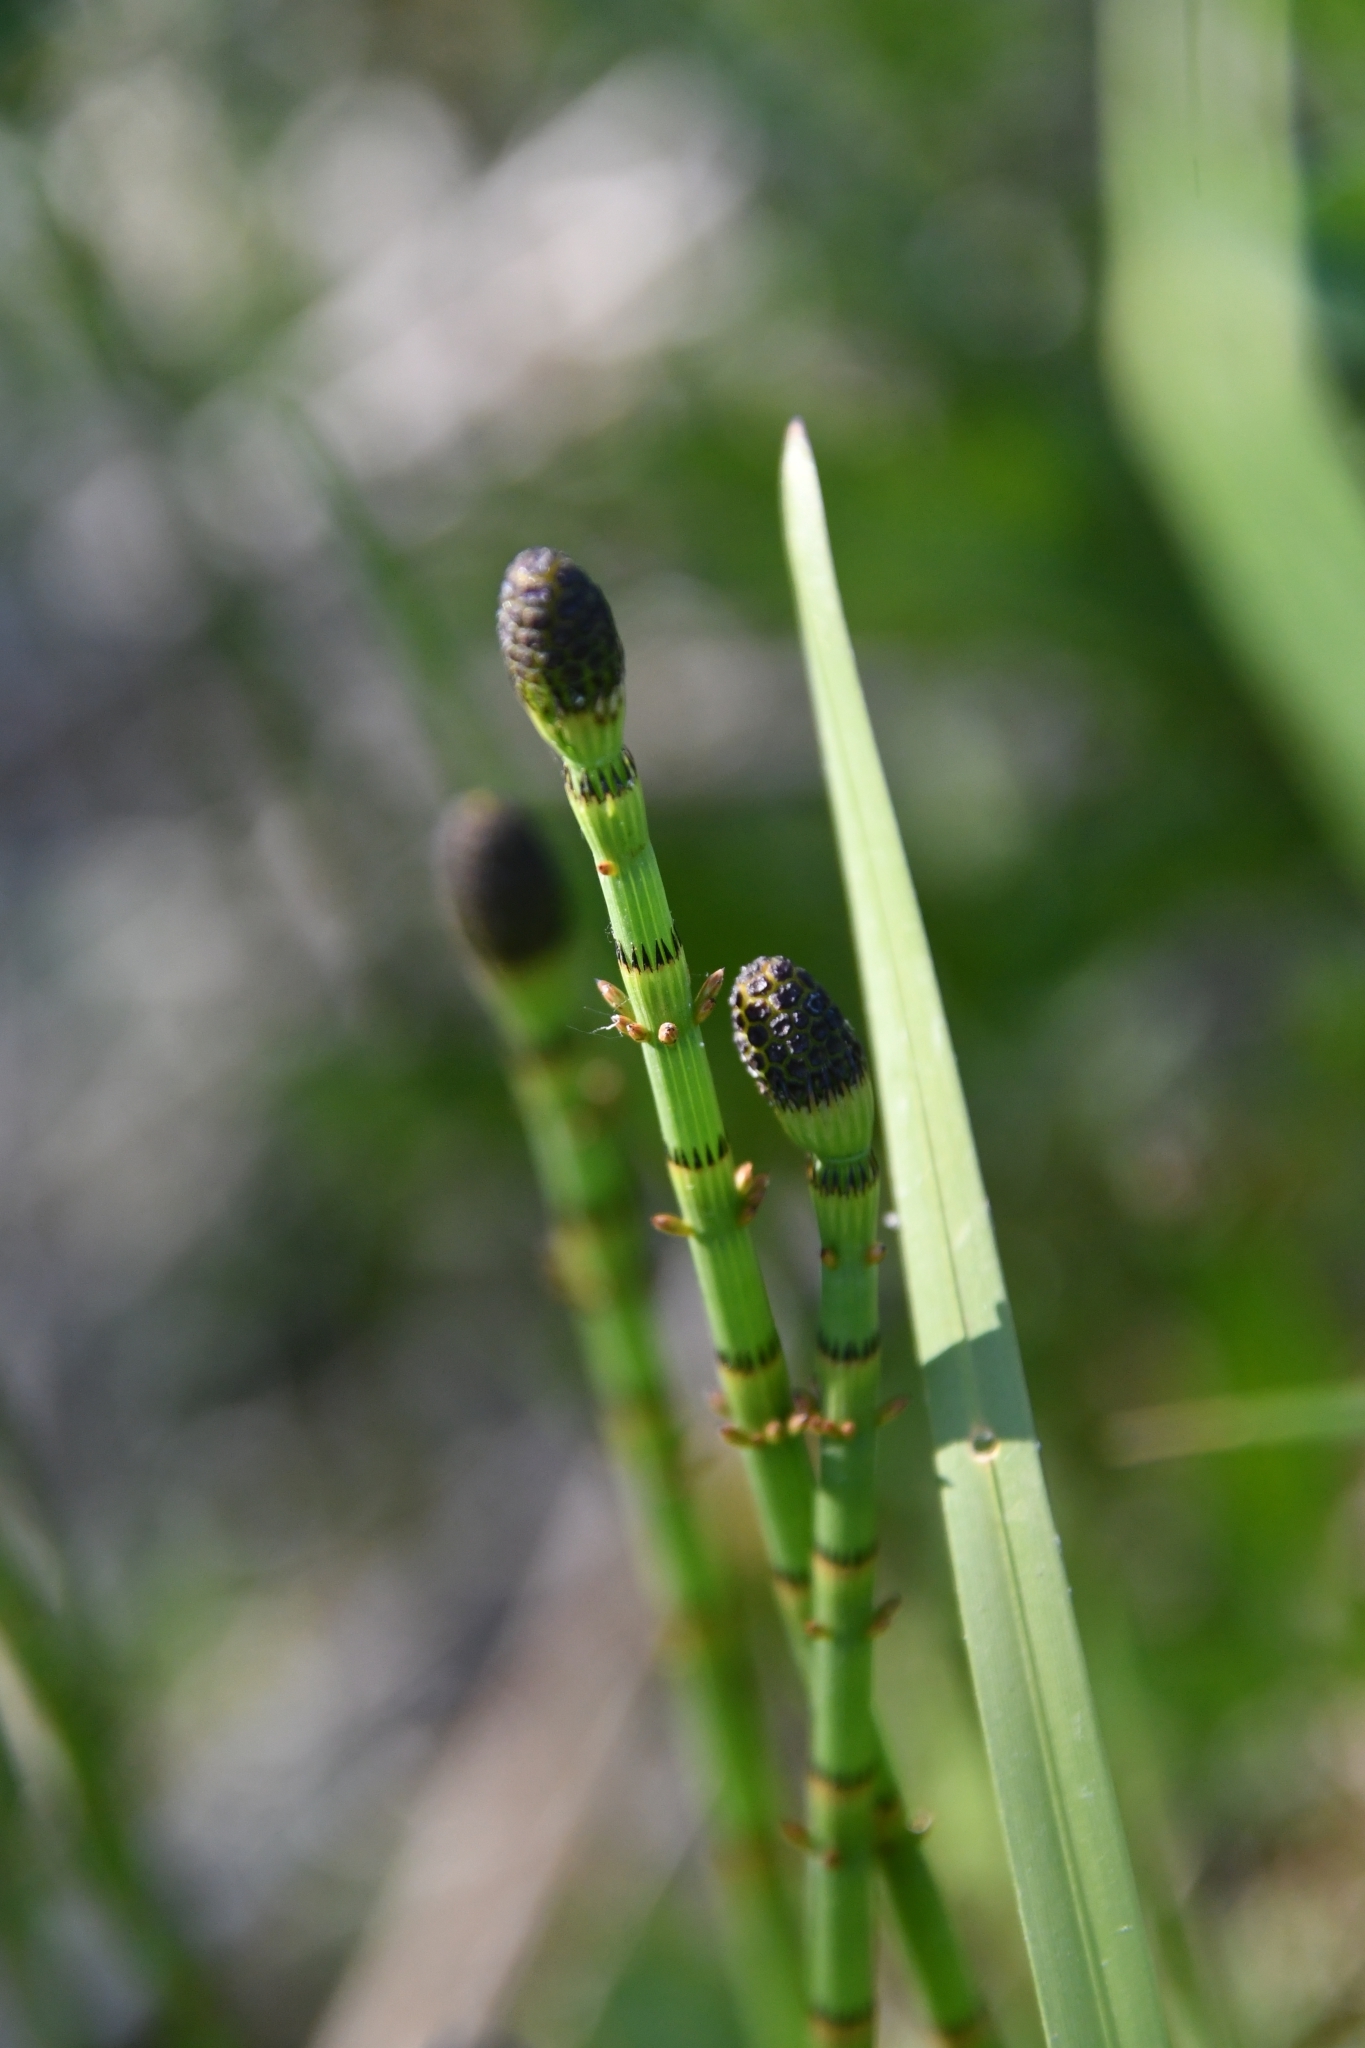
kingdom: Plantae
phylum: Tracheophyta
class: Polypodiopsida
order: Equisetales
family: Equisetaceae
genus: Equisetum
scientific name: Equisetum fluviatile
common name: Water horsetail
